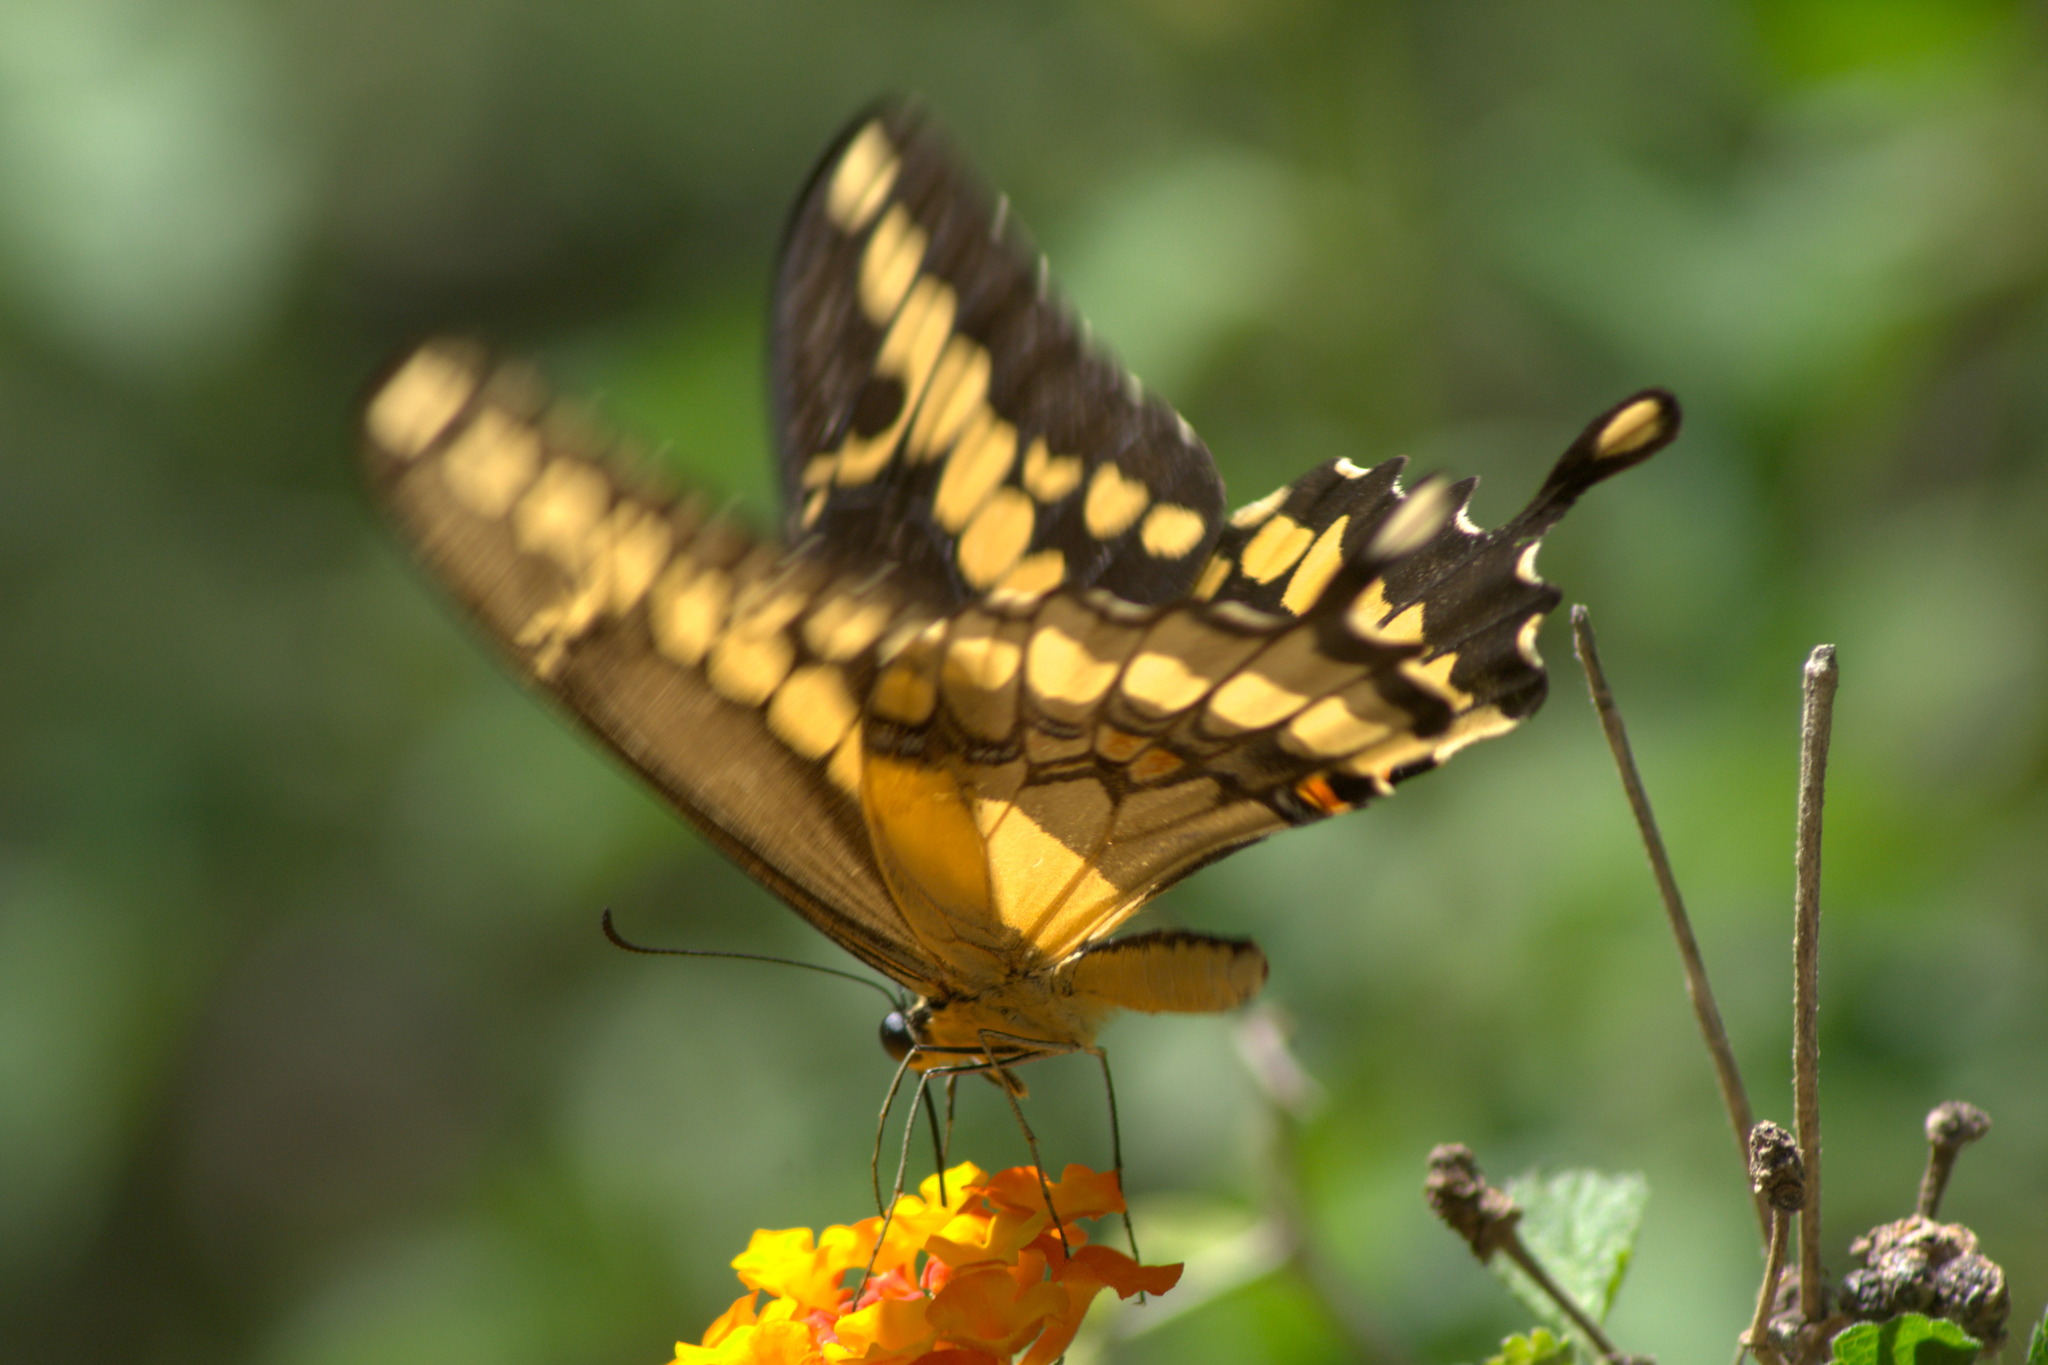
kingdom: Animalia
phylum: Arthropoda
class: Insecta
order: Lepidoptera
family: Papilionidae
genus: Papilio
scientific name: Papilio rumiko
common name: Western giant swallowtail
